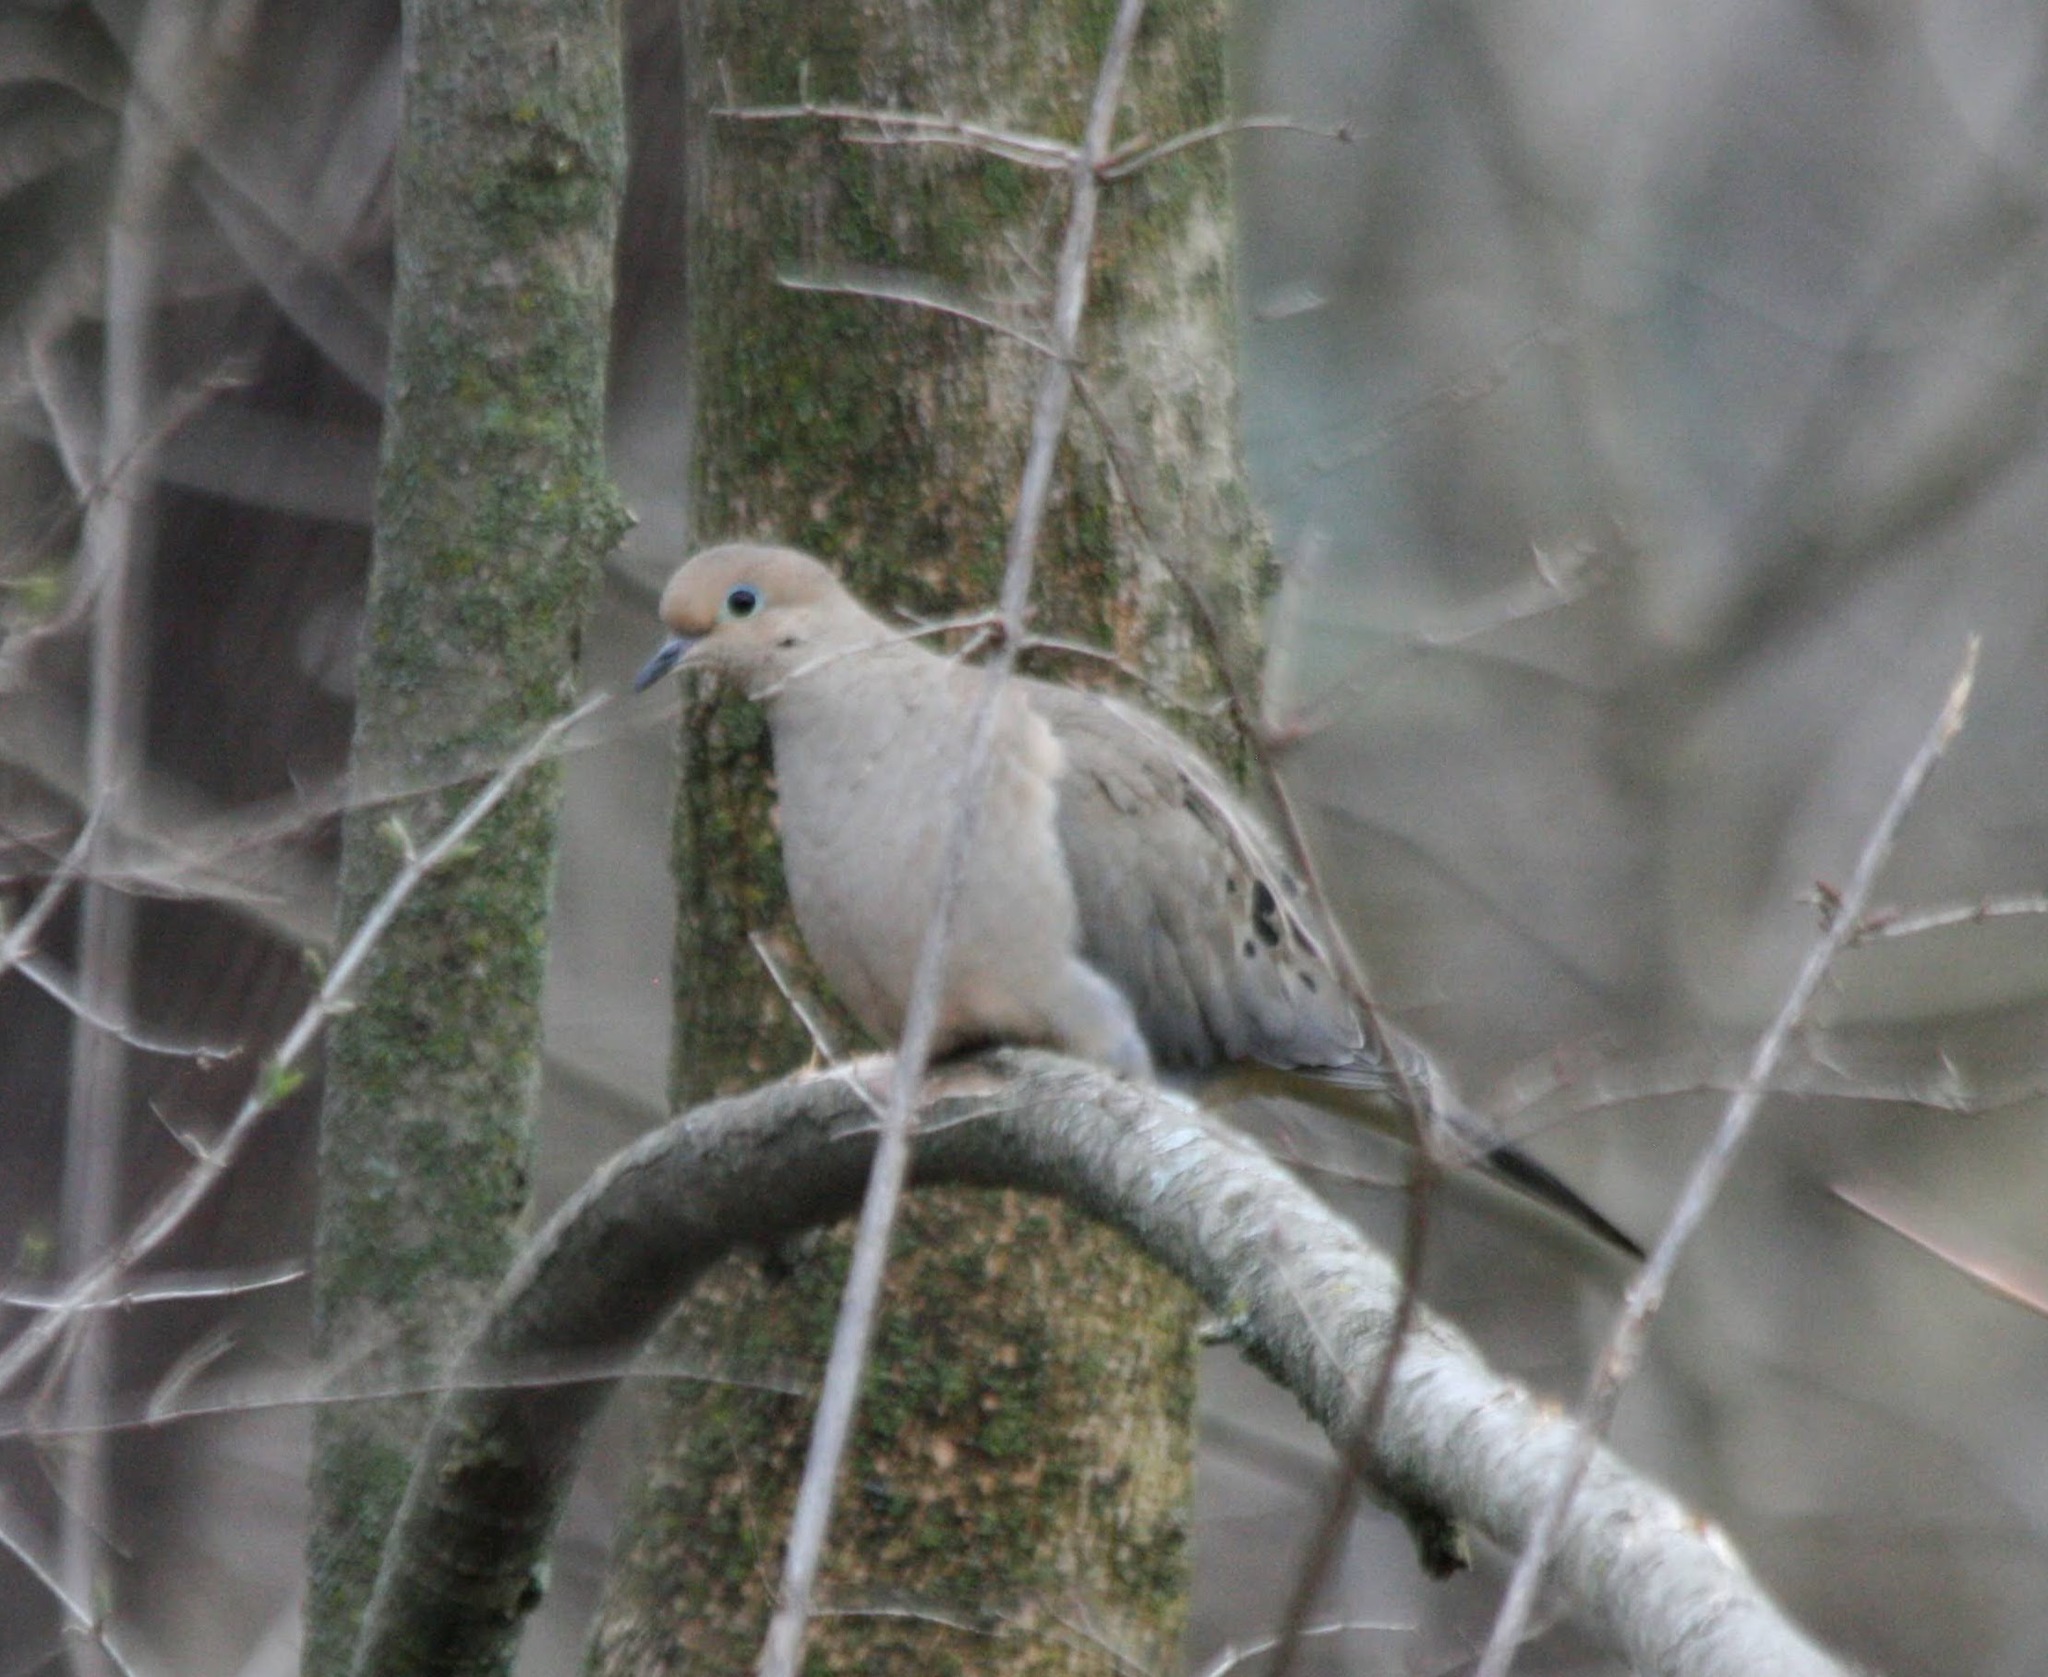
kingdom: Animalia
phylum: Chordata
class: Aves
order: Columbiformes
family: Columbidae
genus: Zenaida
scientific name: Zenaida macroura
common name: Mourning dove
